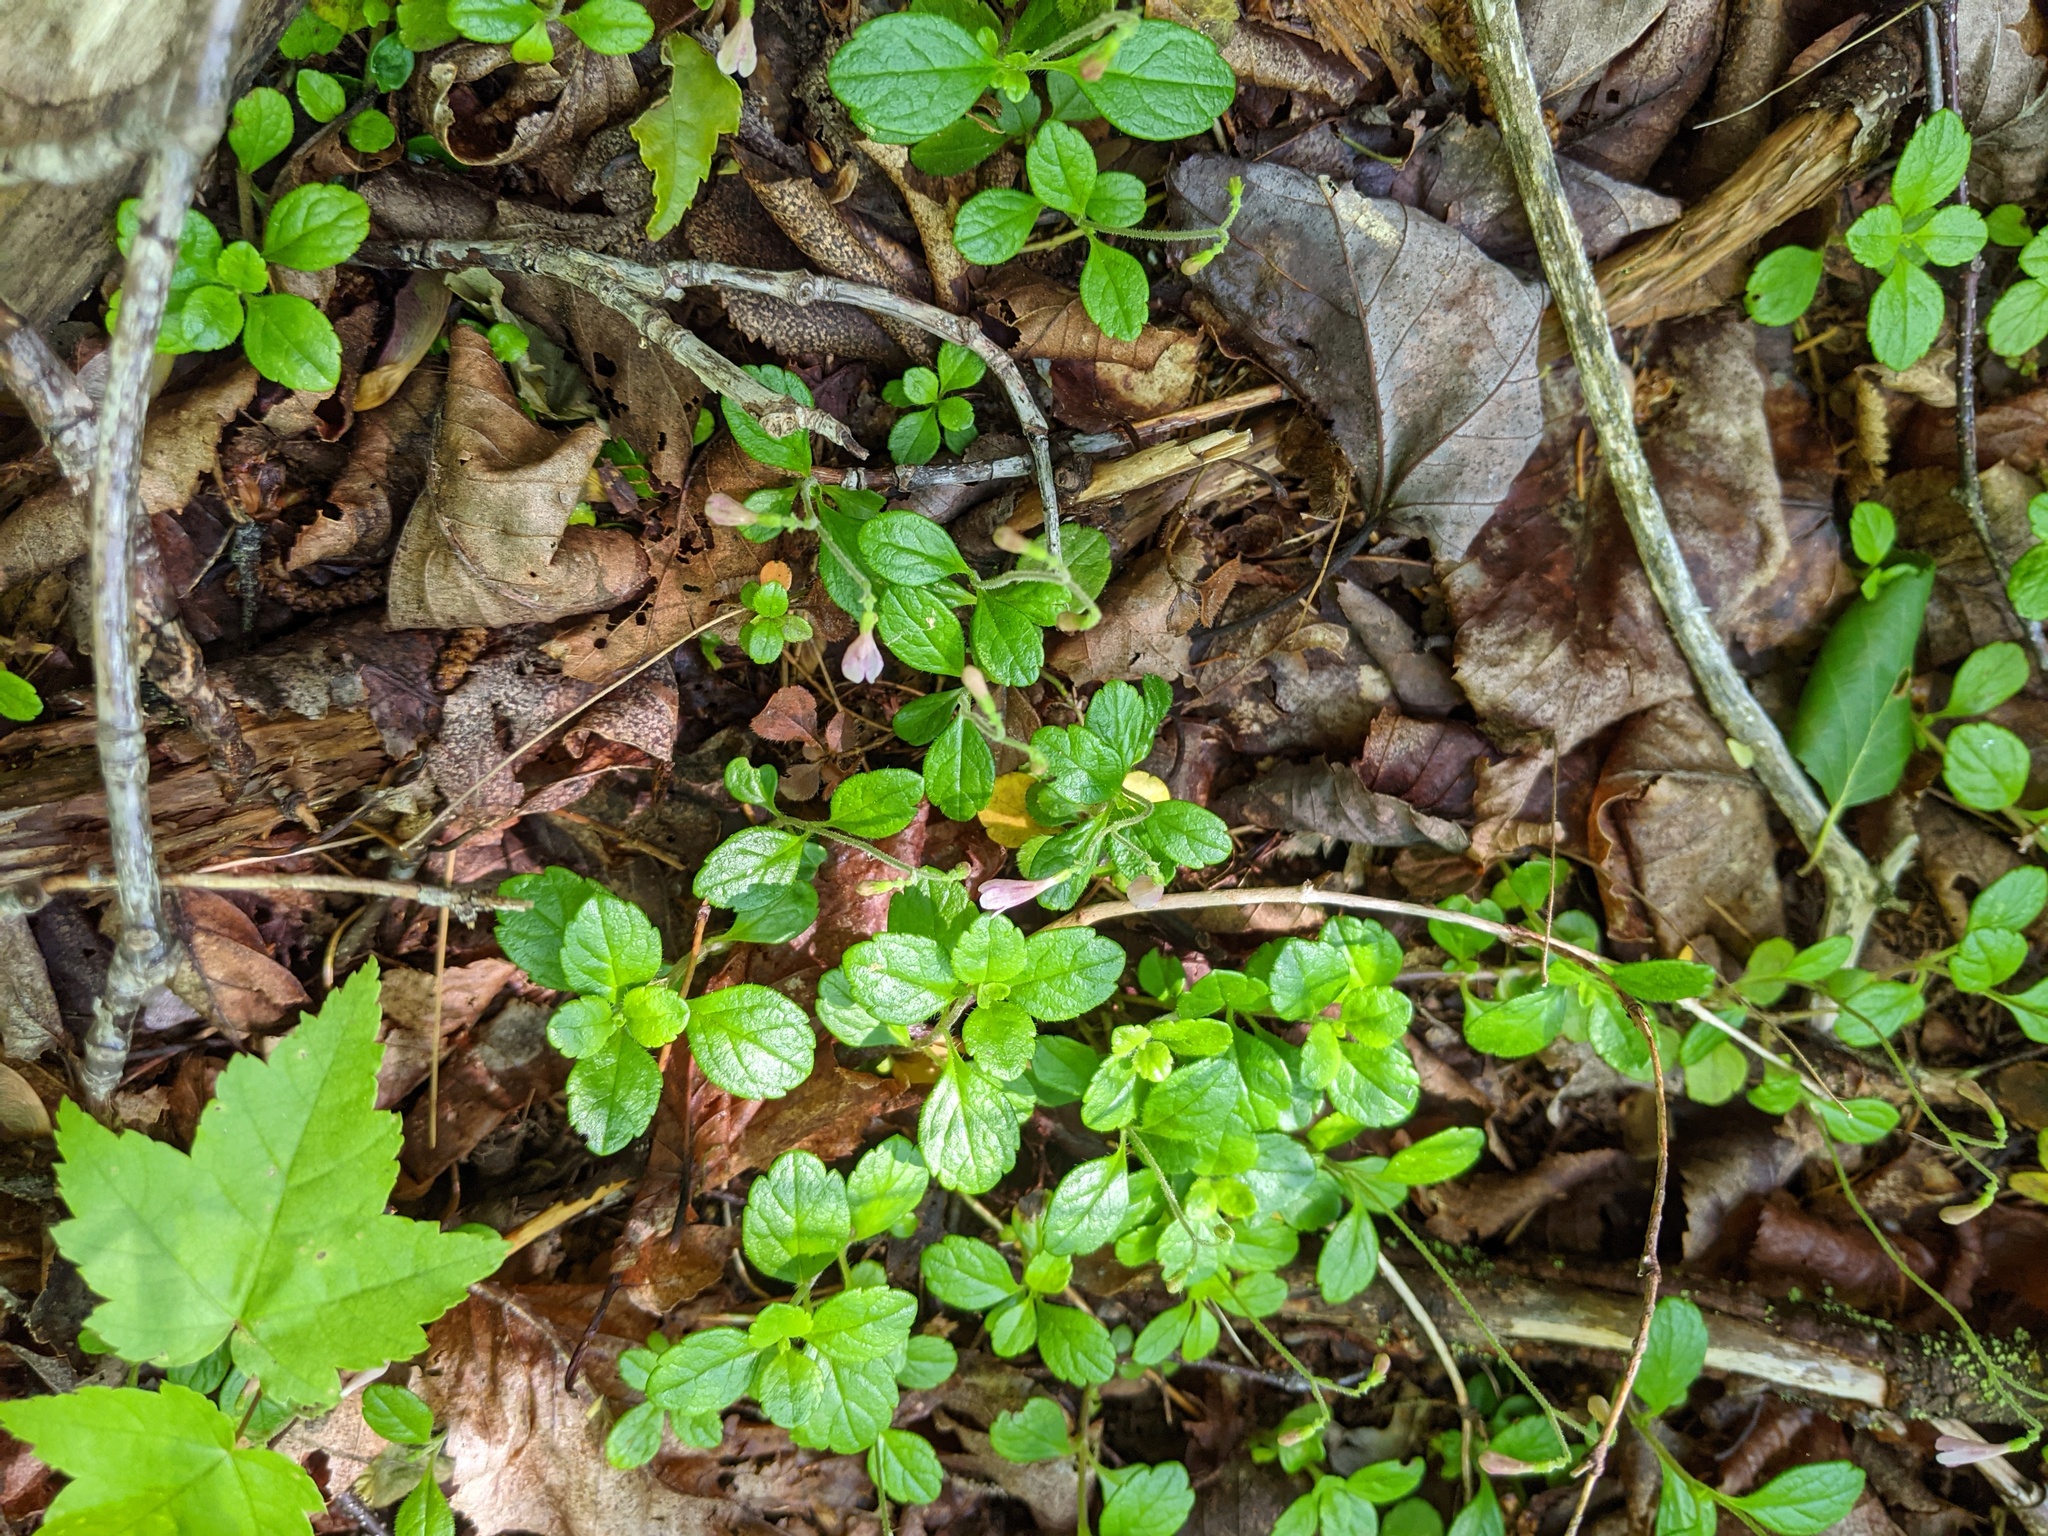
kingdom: Plantae
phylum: Tracheophyta
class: Magnoliopsida
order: Dipsacales
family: Caprifoliaceae
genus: Linnaea
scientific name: Linnaea borealis
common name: Twinflower
